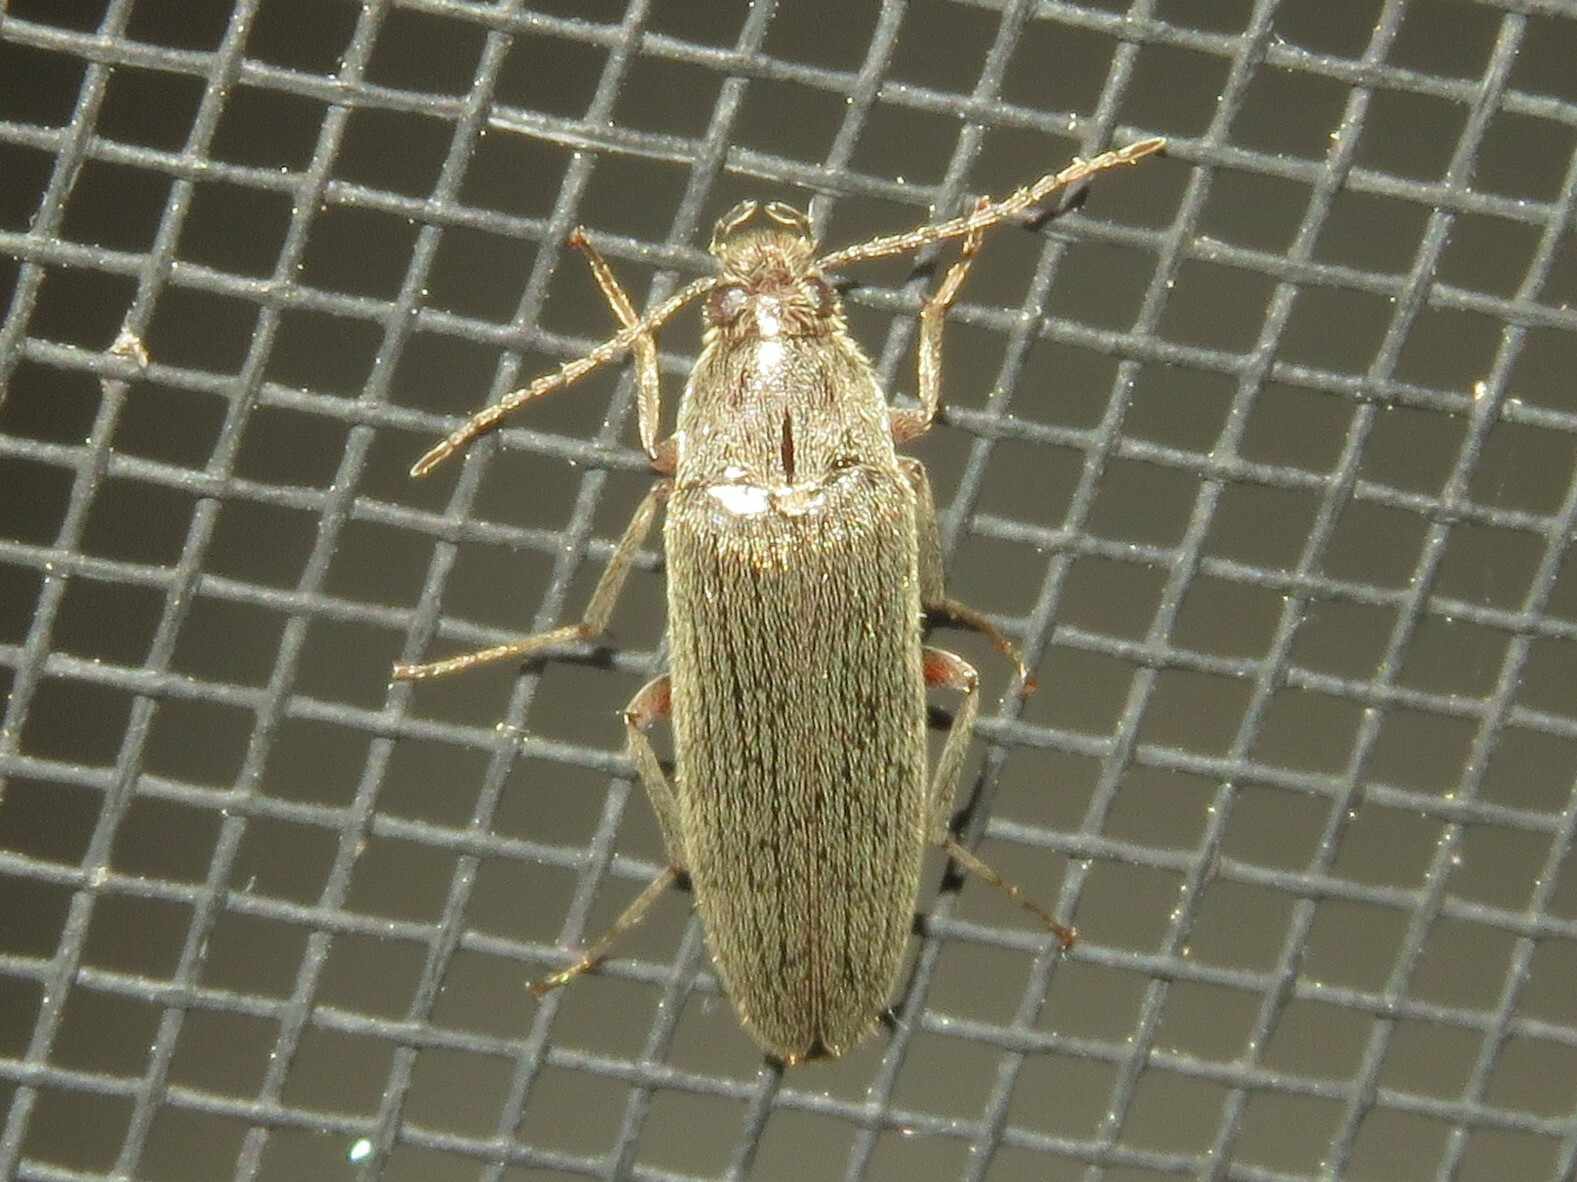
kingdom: Animalia
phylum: Arthropoda
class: Insecta
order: Coleoptera
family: Synchroidae
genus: Synchroa
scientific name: Synchroa punctata
